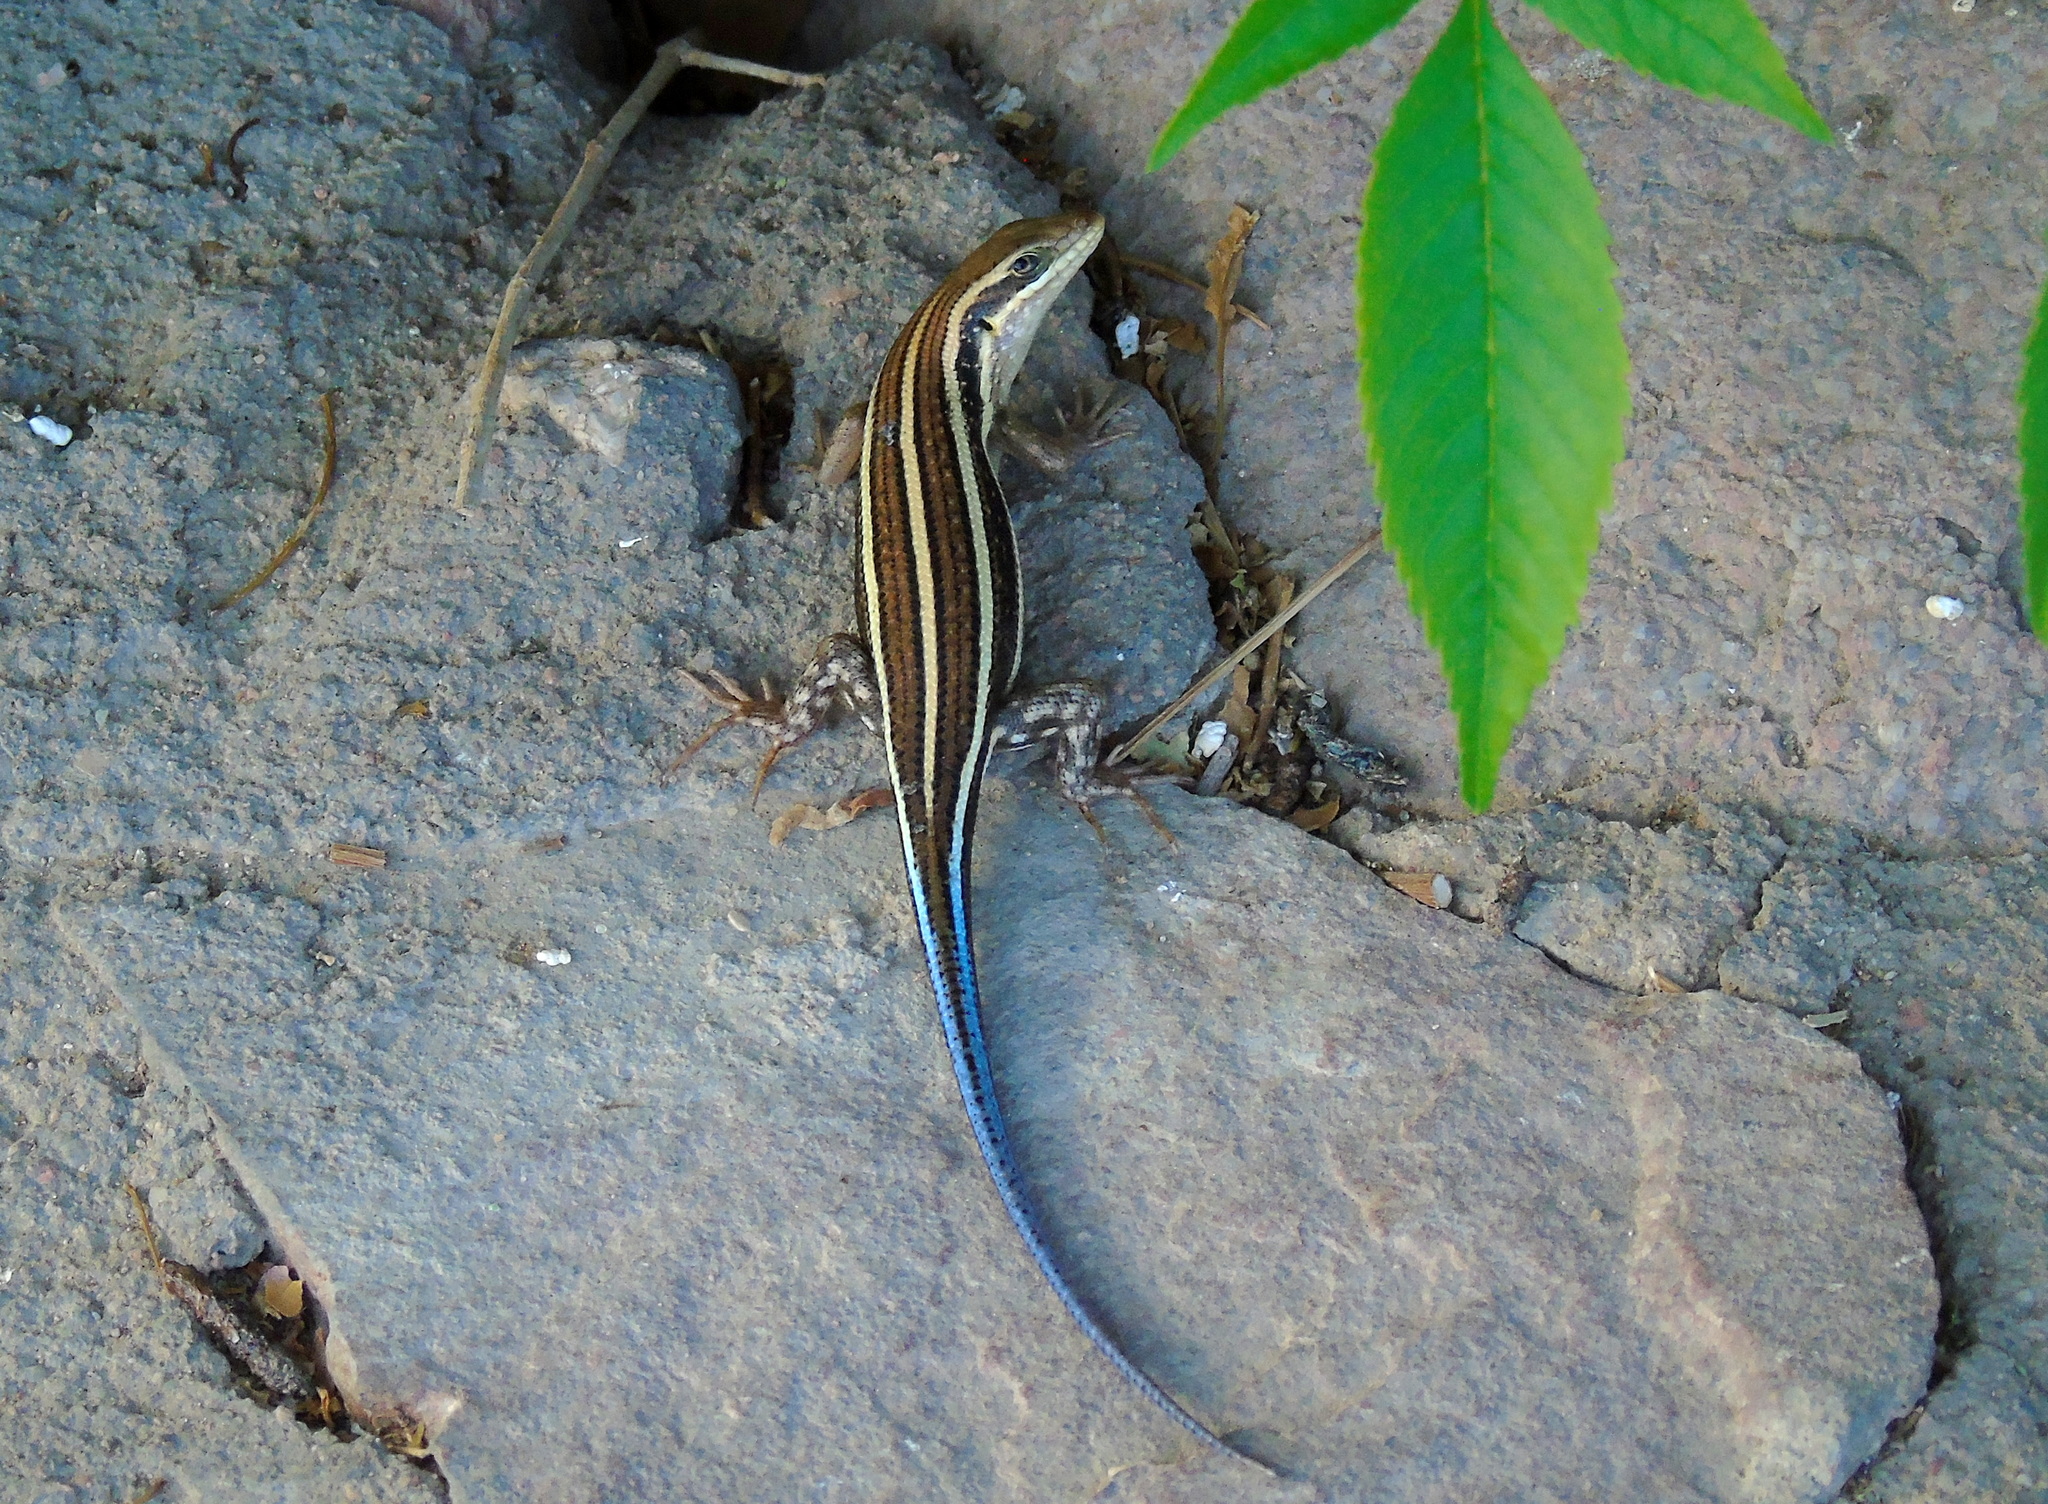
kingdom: Animalia
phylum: Chordata
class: Squamata
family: Scincidae
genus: Trachylepis
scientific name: Trachylepis quinquetaeniata
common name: African five-lined skink
